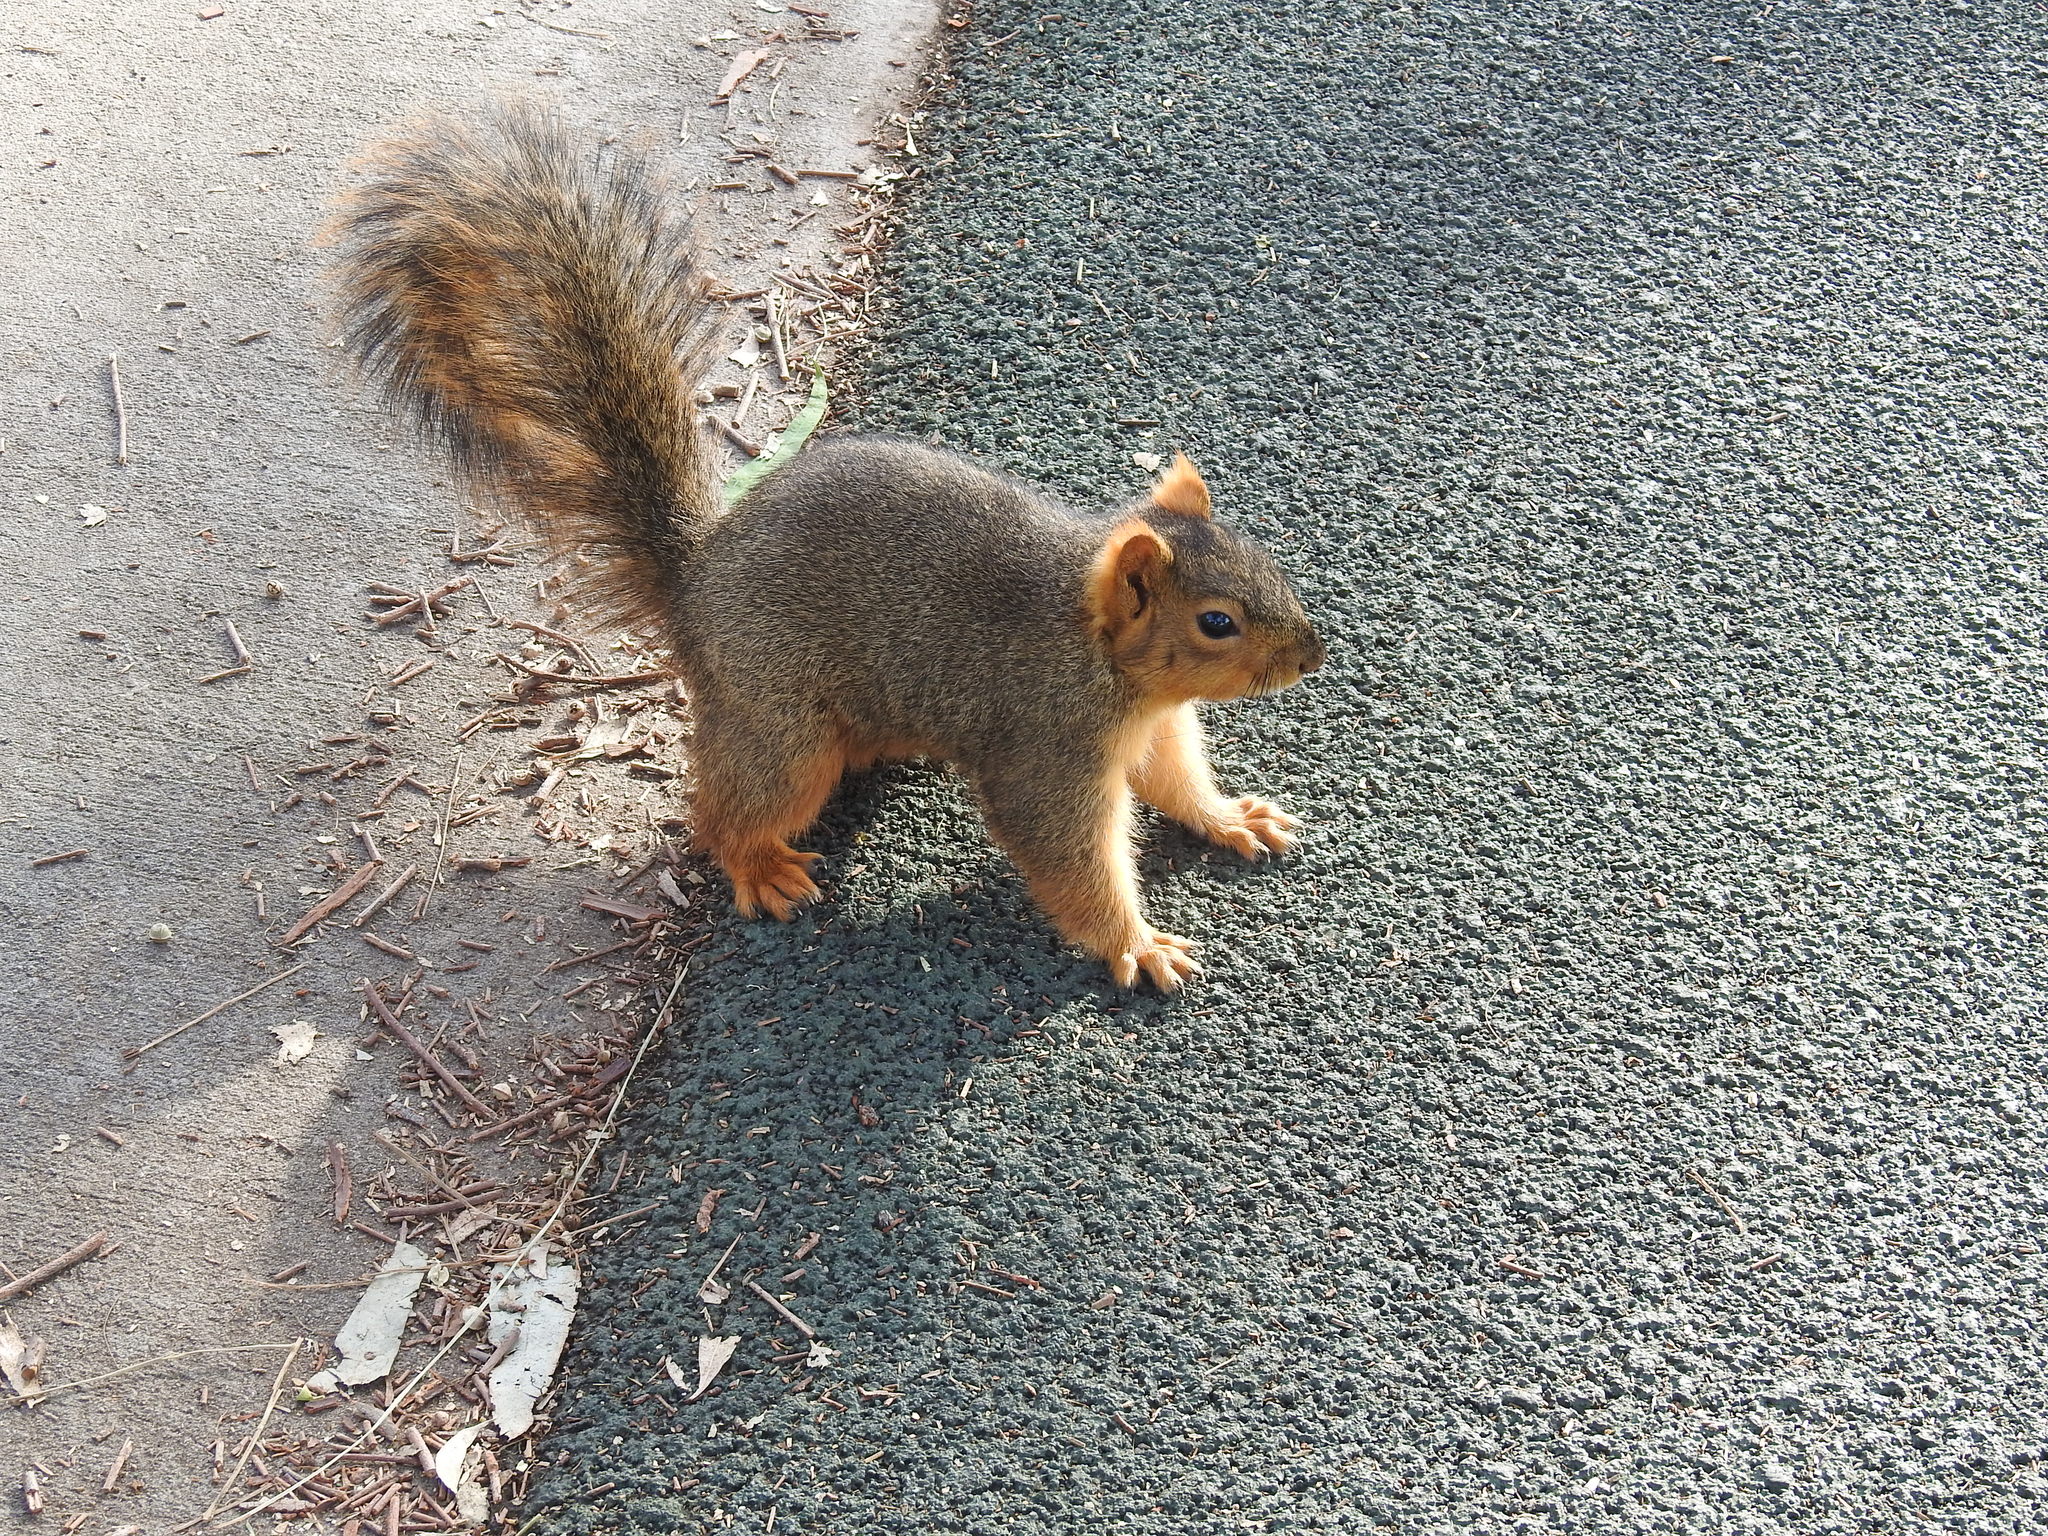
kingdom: Animalia
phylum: Chordata
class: Mammalia
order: Rodentia
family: Sciuridae
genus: Sciurus
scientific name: Sciurus niger
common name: Fox squirrel
